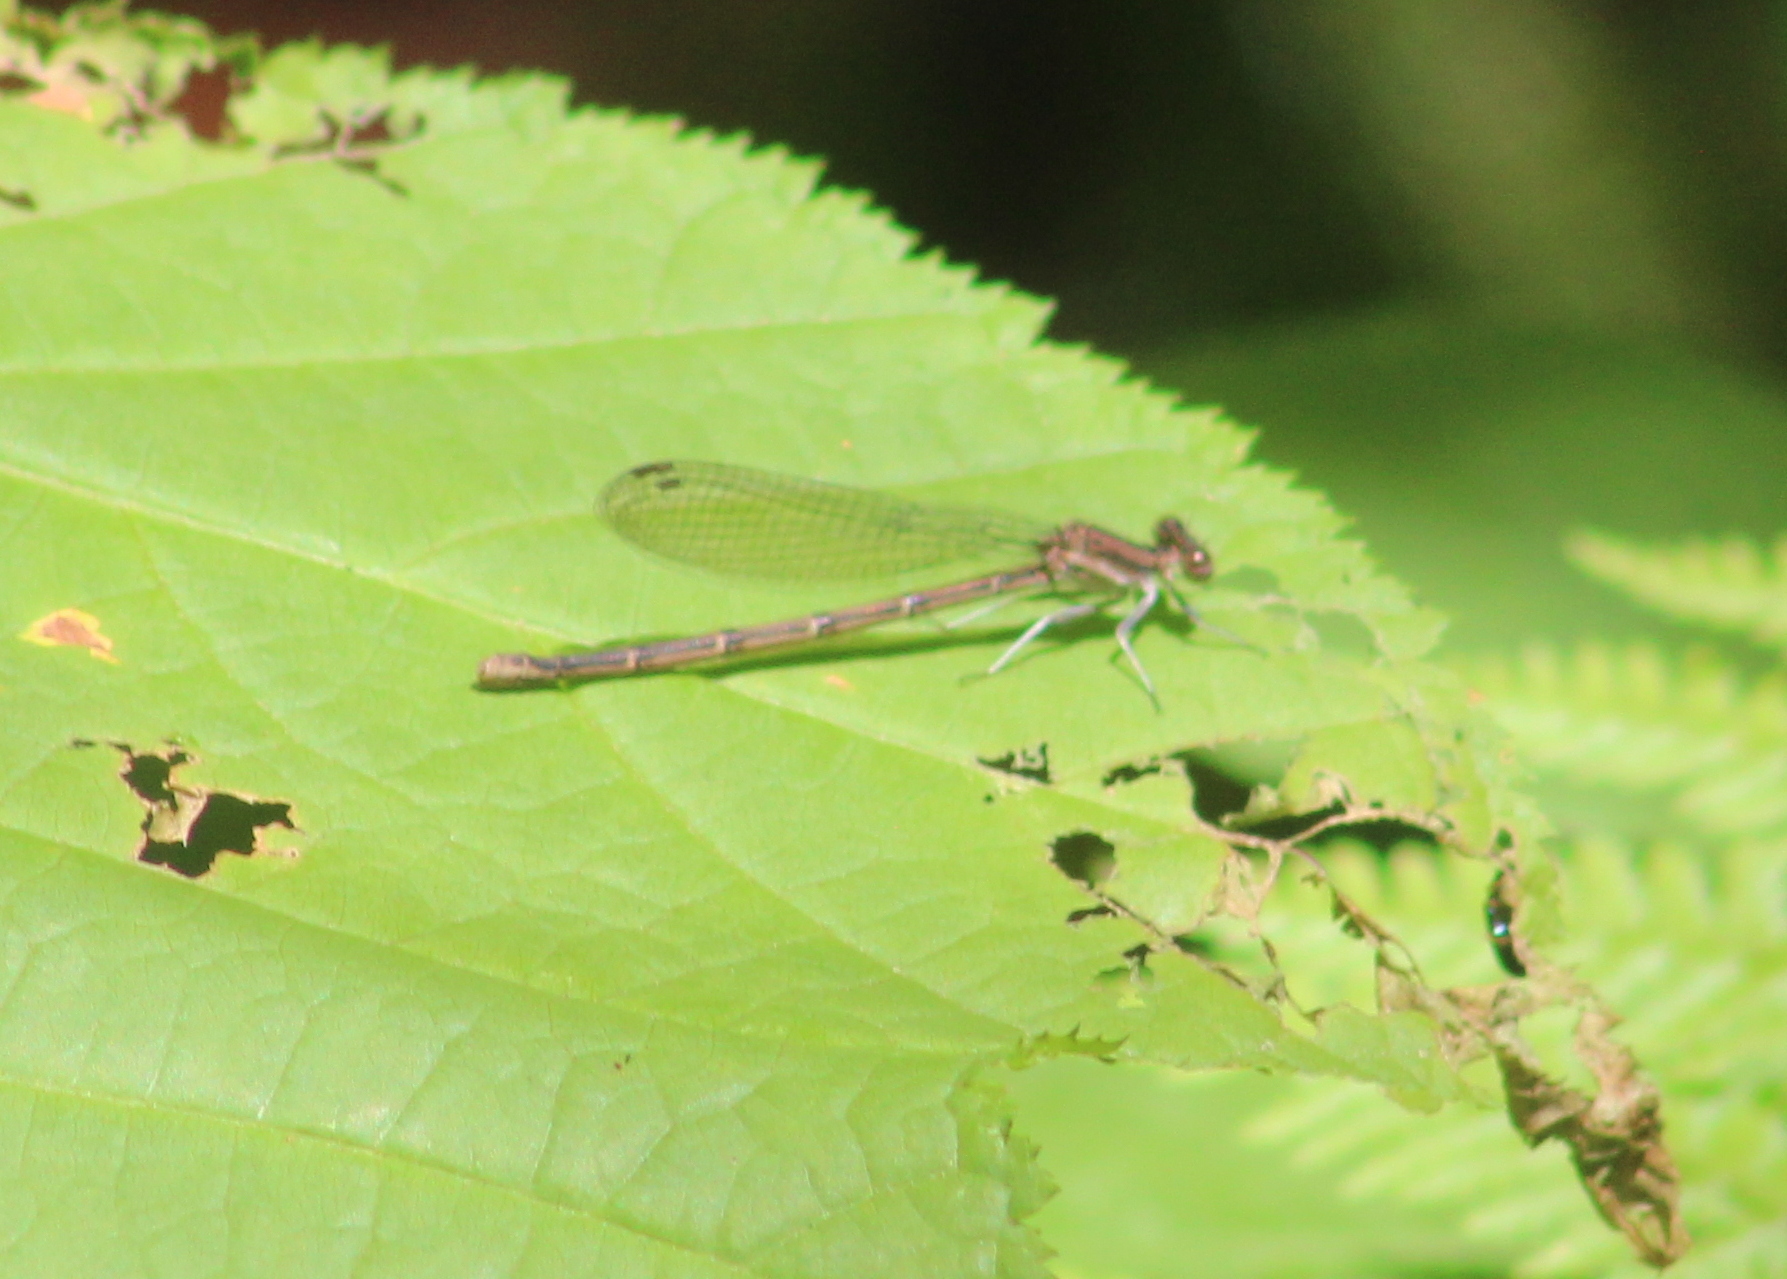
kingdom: Animalia
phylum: Arthropoda
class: Insecta
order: Odonata
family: Coenagrionidae
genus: Argia
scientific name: Argia fumipennis
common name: Variable dancer
